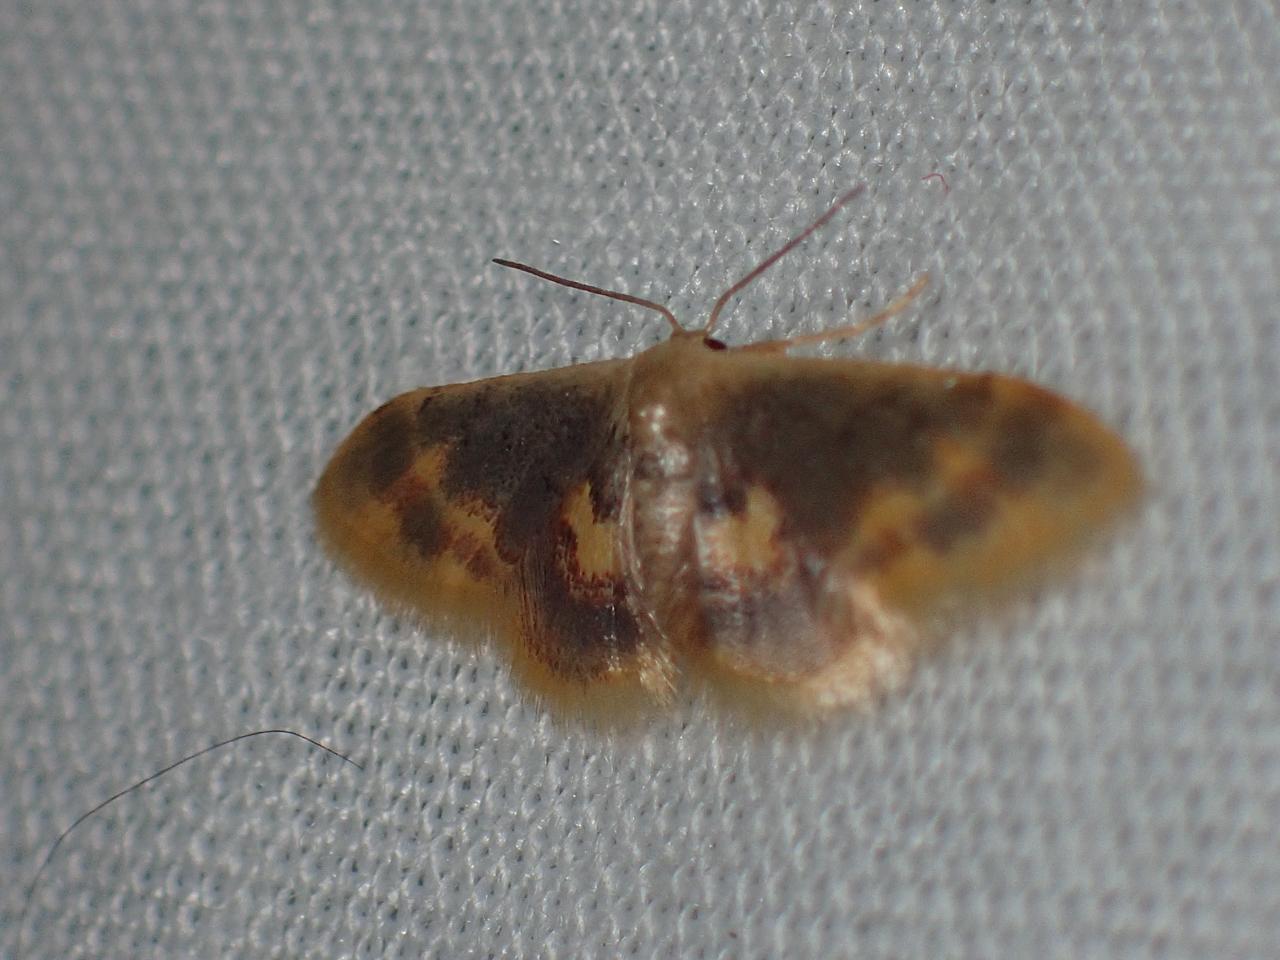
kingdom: Animalia
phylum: Arthropoda
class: Insecta
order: Lepidoptera
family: Geometridae
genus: Idaea
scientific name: Idaea scintillularia
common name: Diminutive wave
